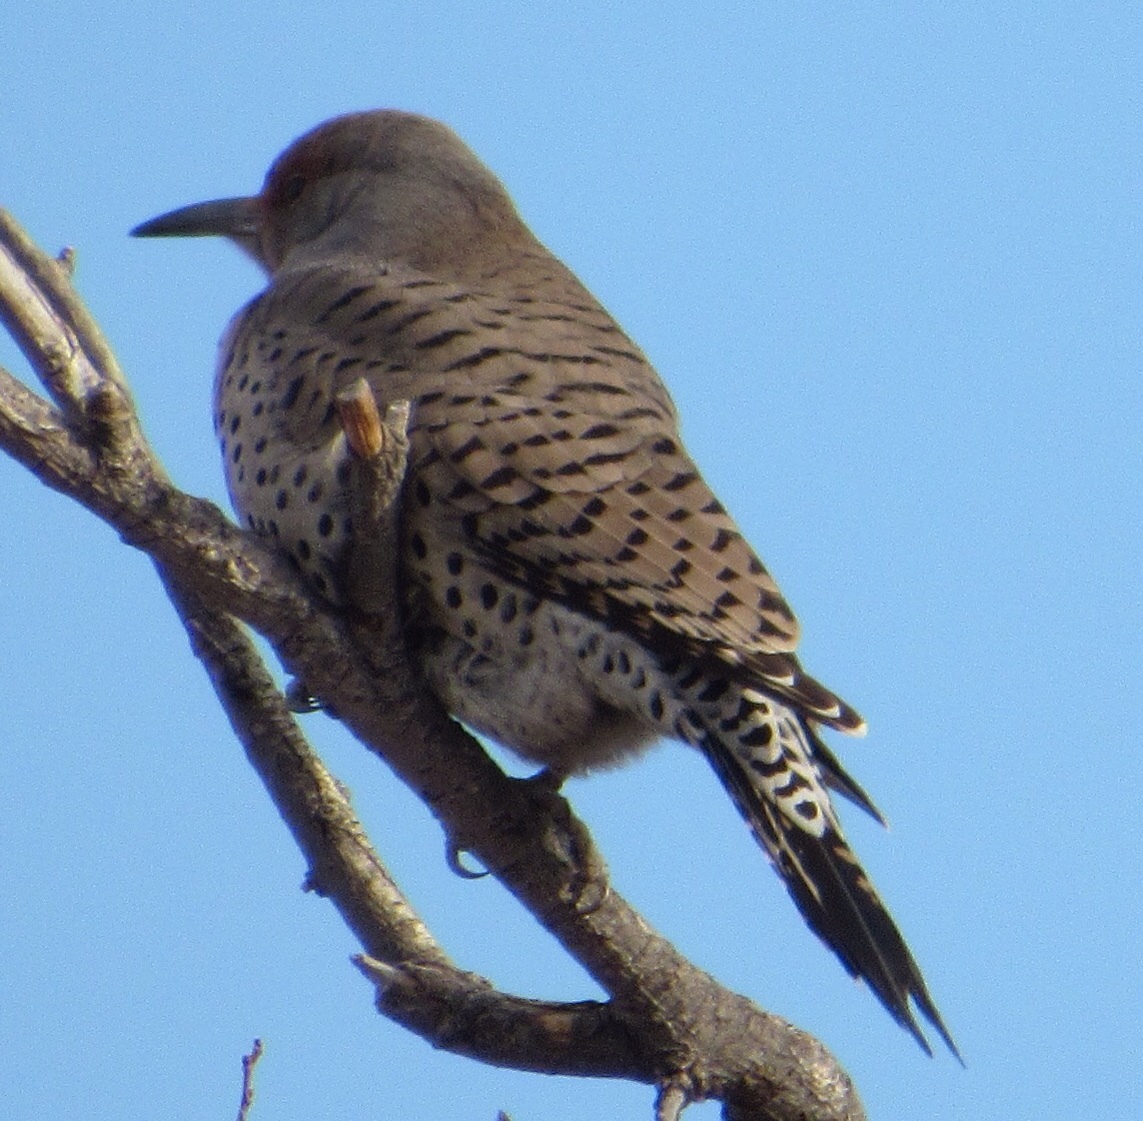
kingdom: Animalia
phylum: Chordata
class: Aves
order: Piciformes
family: Picidae
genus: Colaptes
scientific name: Colaptes auratus
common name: Northern flicker
